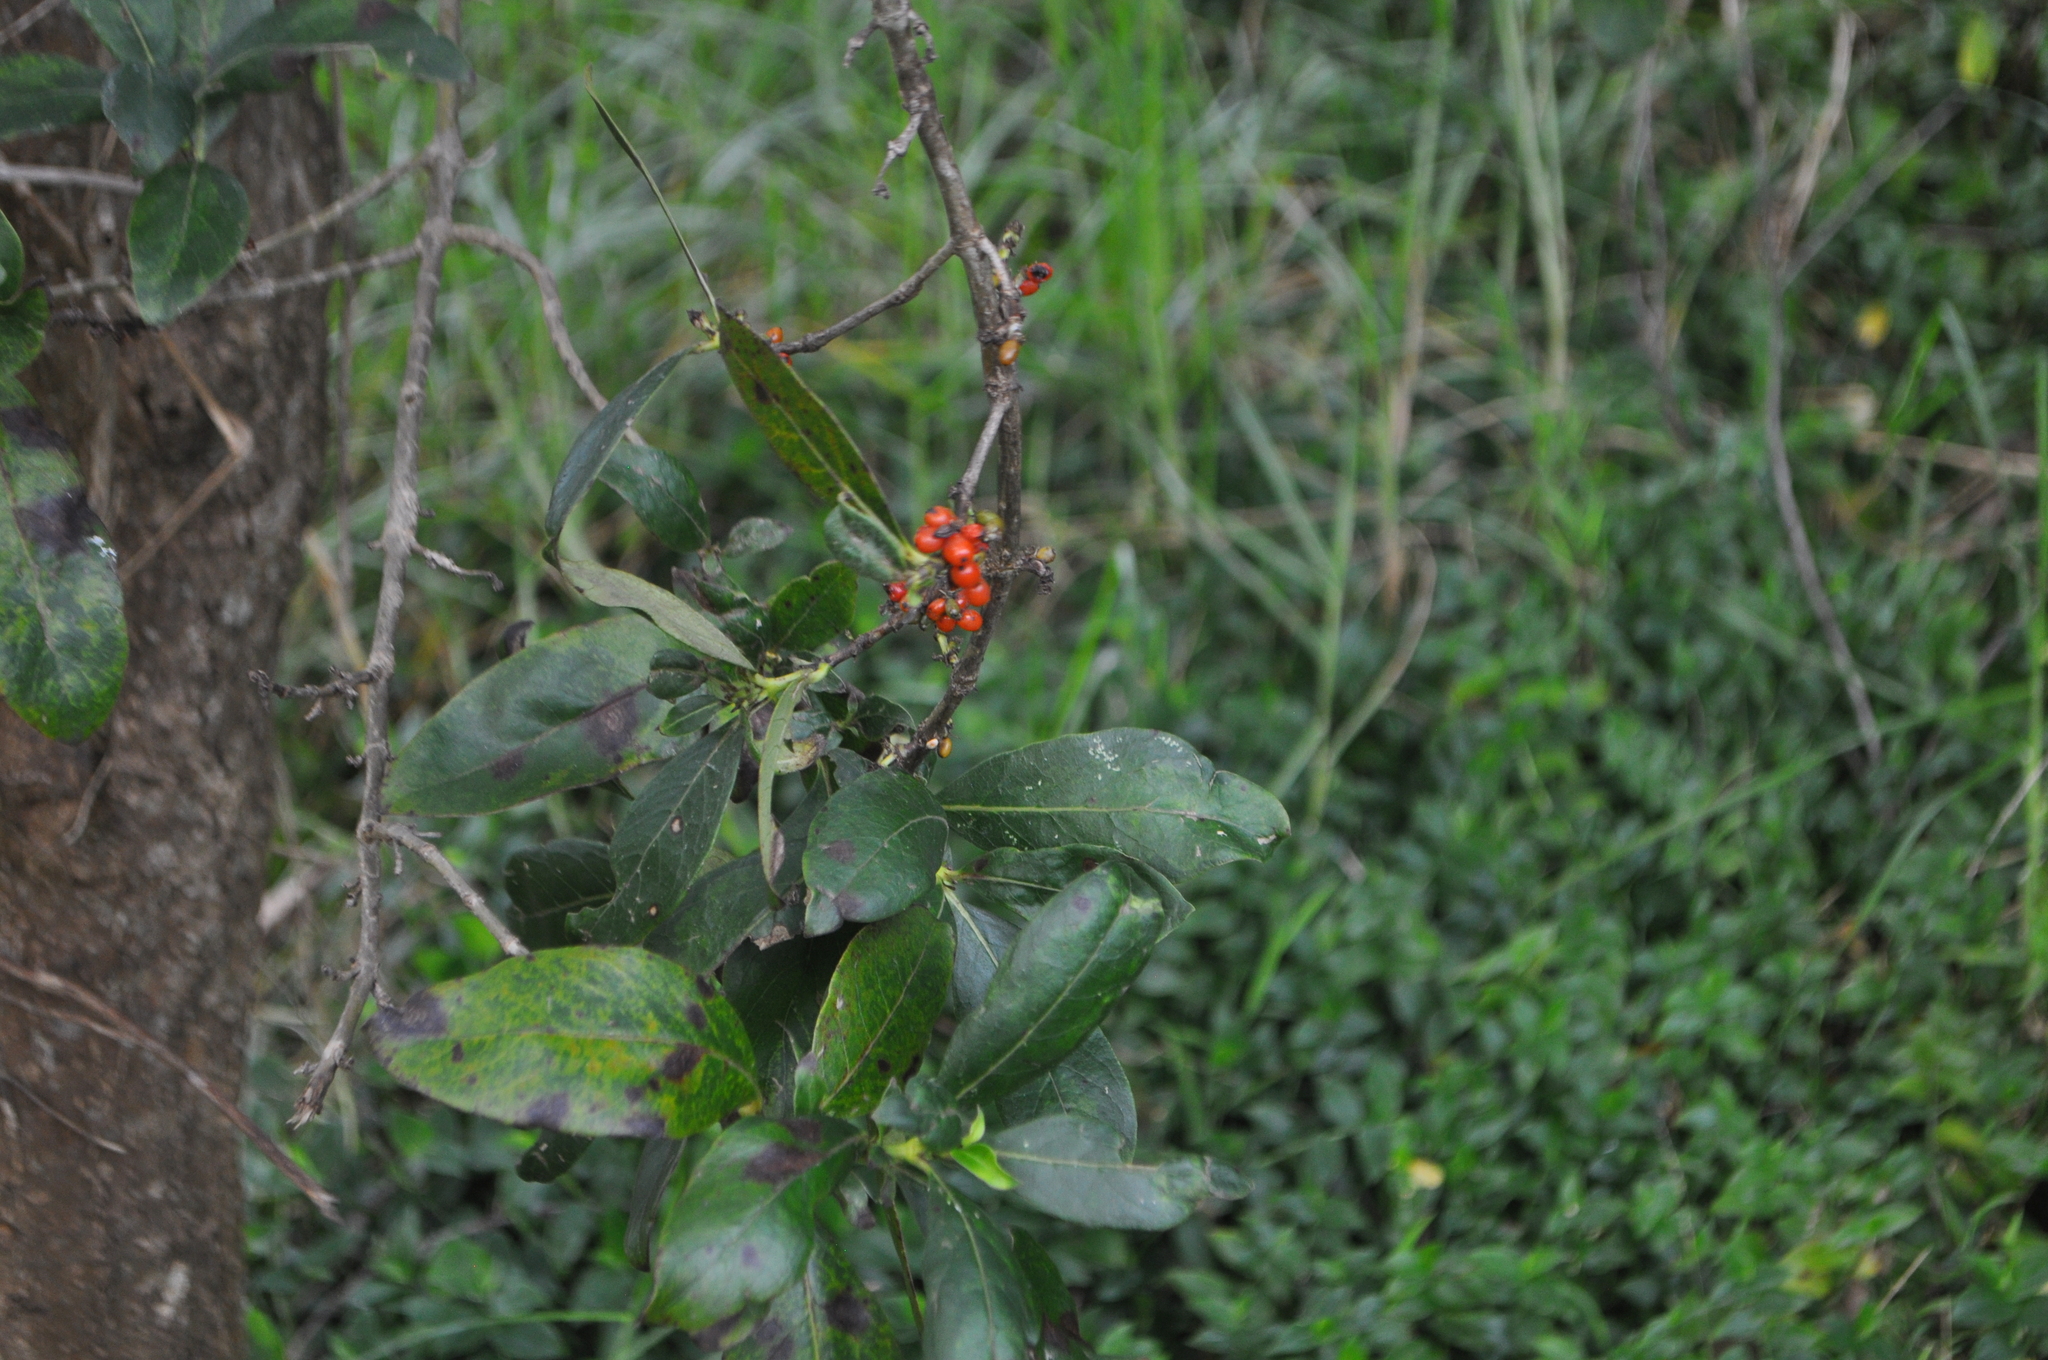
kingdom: Plantae
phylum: Tracheophyta
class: Magnoliopsida
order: Gentianales
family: Rubiaceae
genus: Coprosma
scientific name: Coprosma robusta
